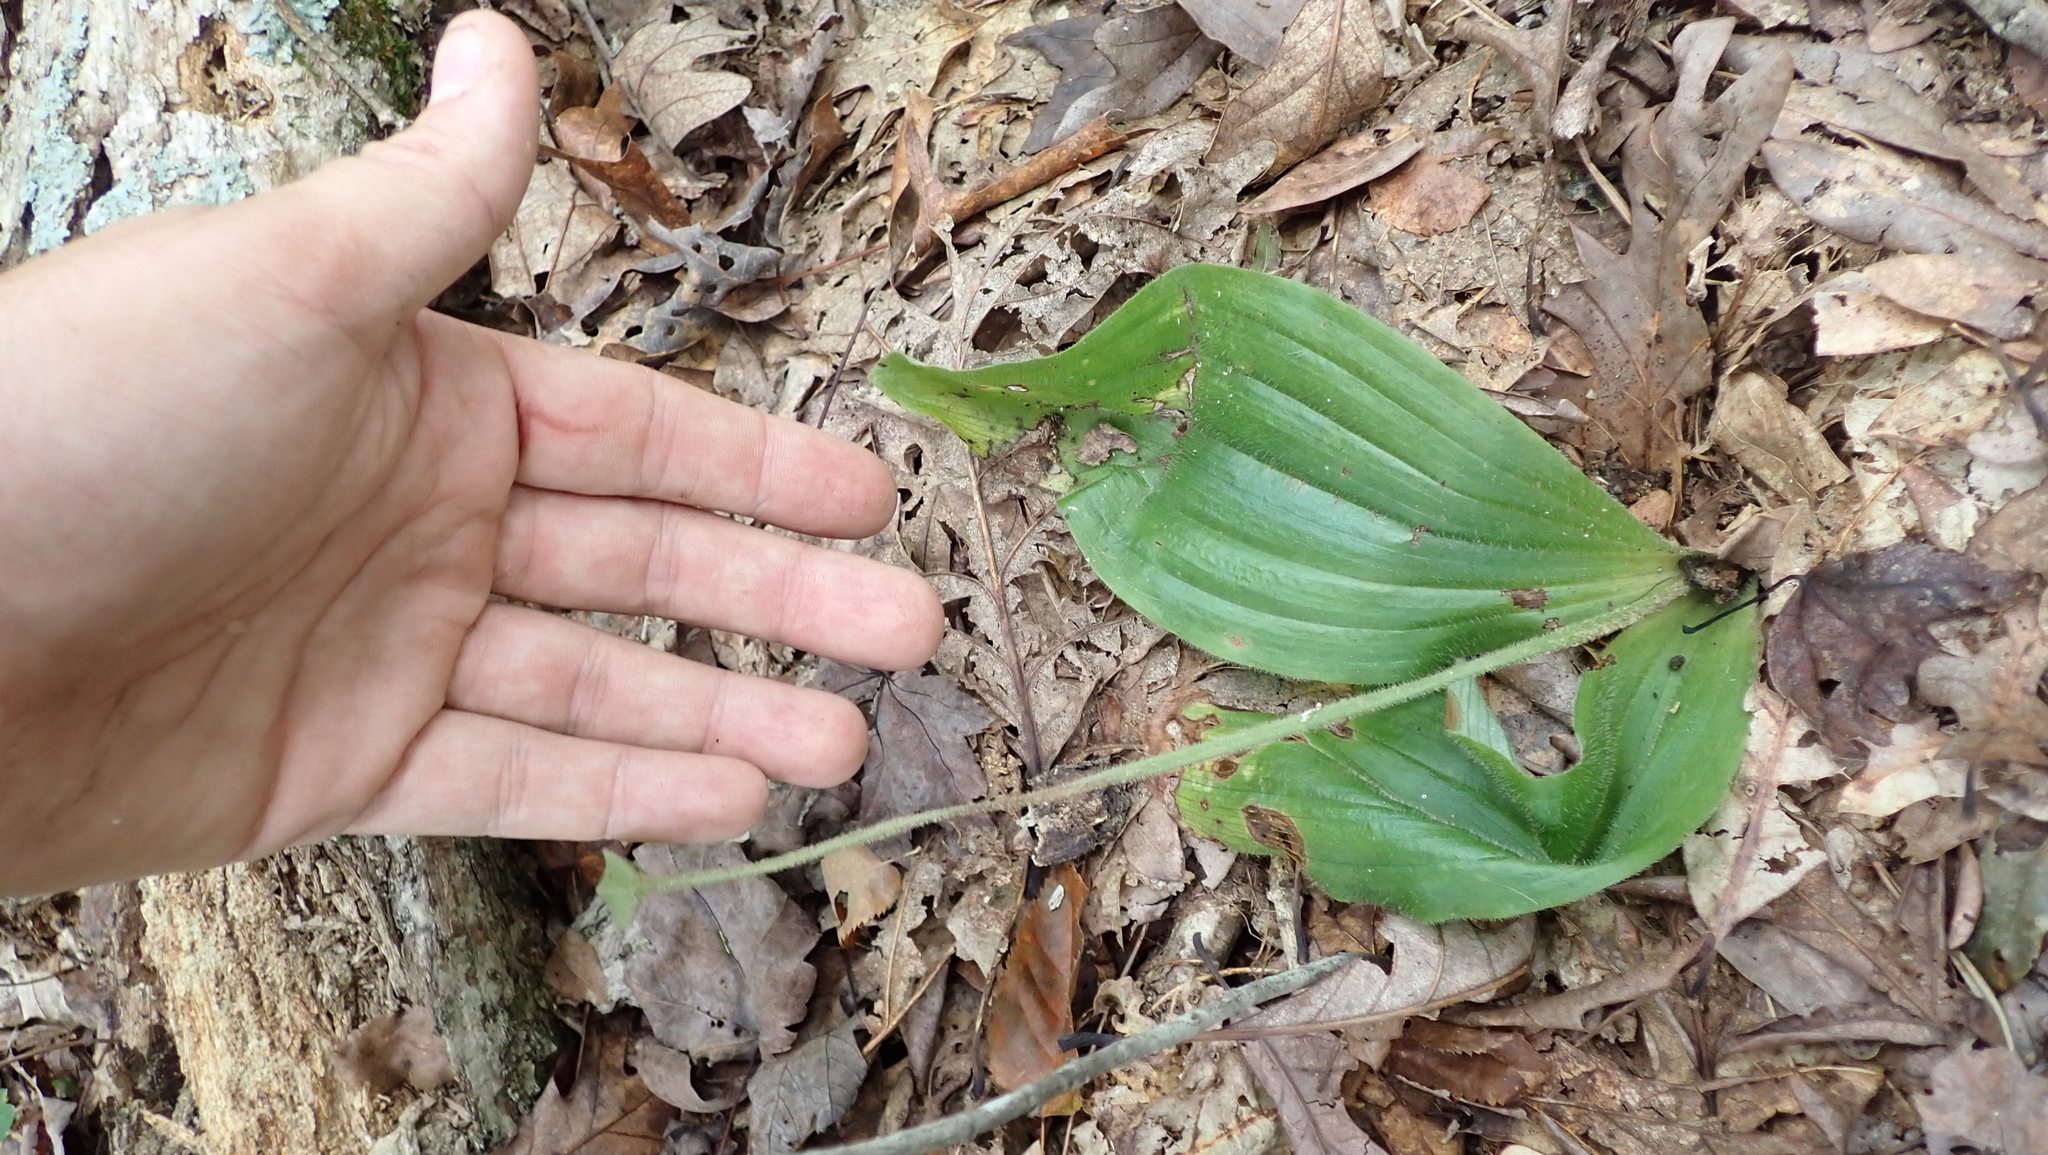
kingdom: Plantae
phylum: Tracheophyta
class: Liliopsida
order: Asparagales
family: Orchidaceae
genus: Cypripedium
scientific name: Cypripedium acaule
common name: Pink lady's-slipper
